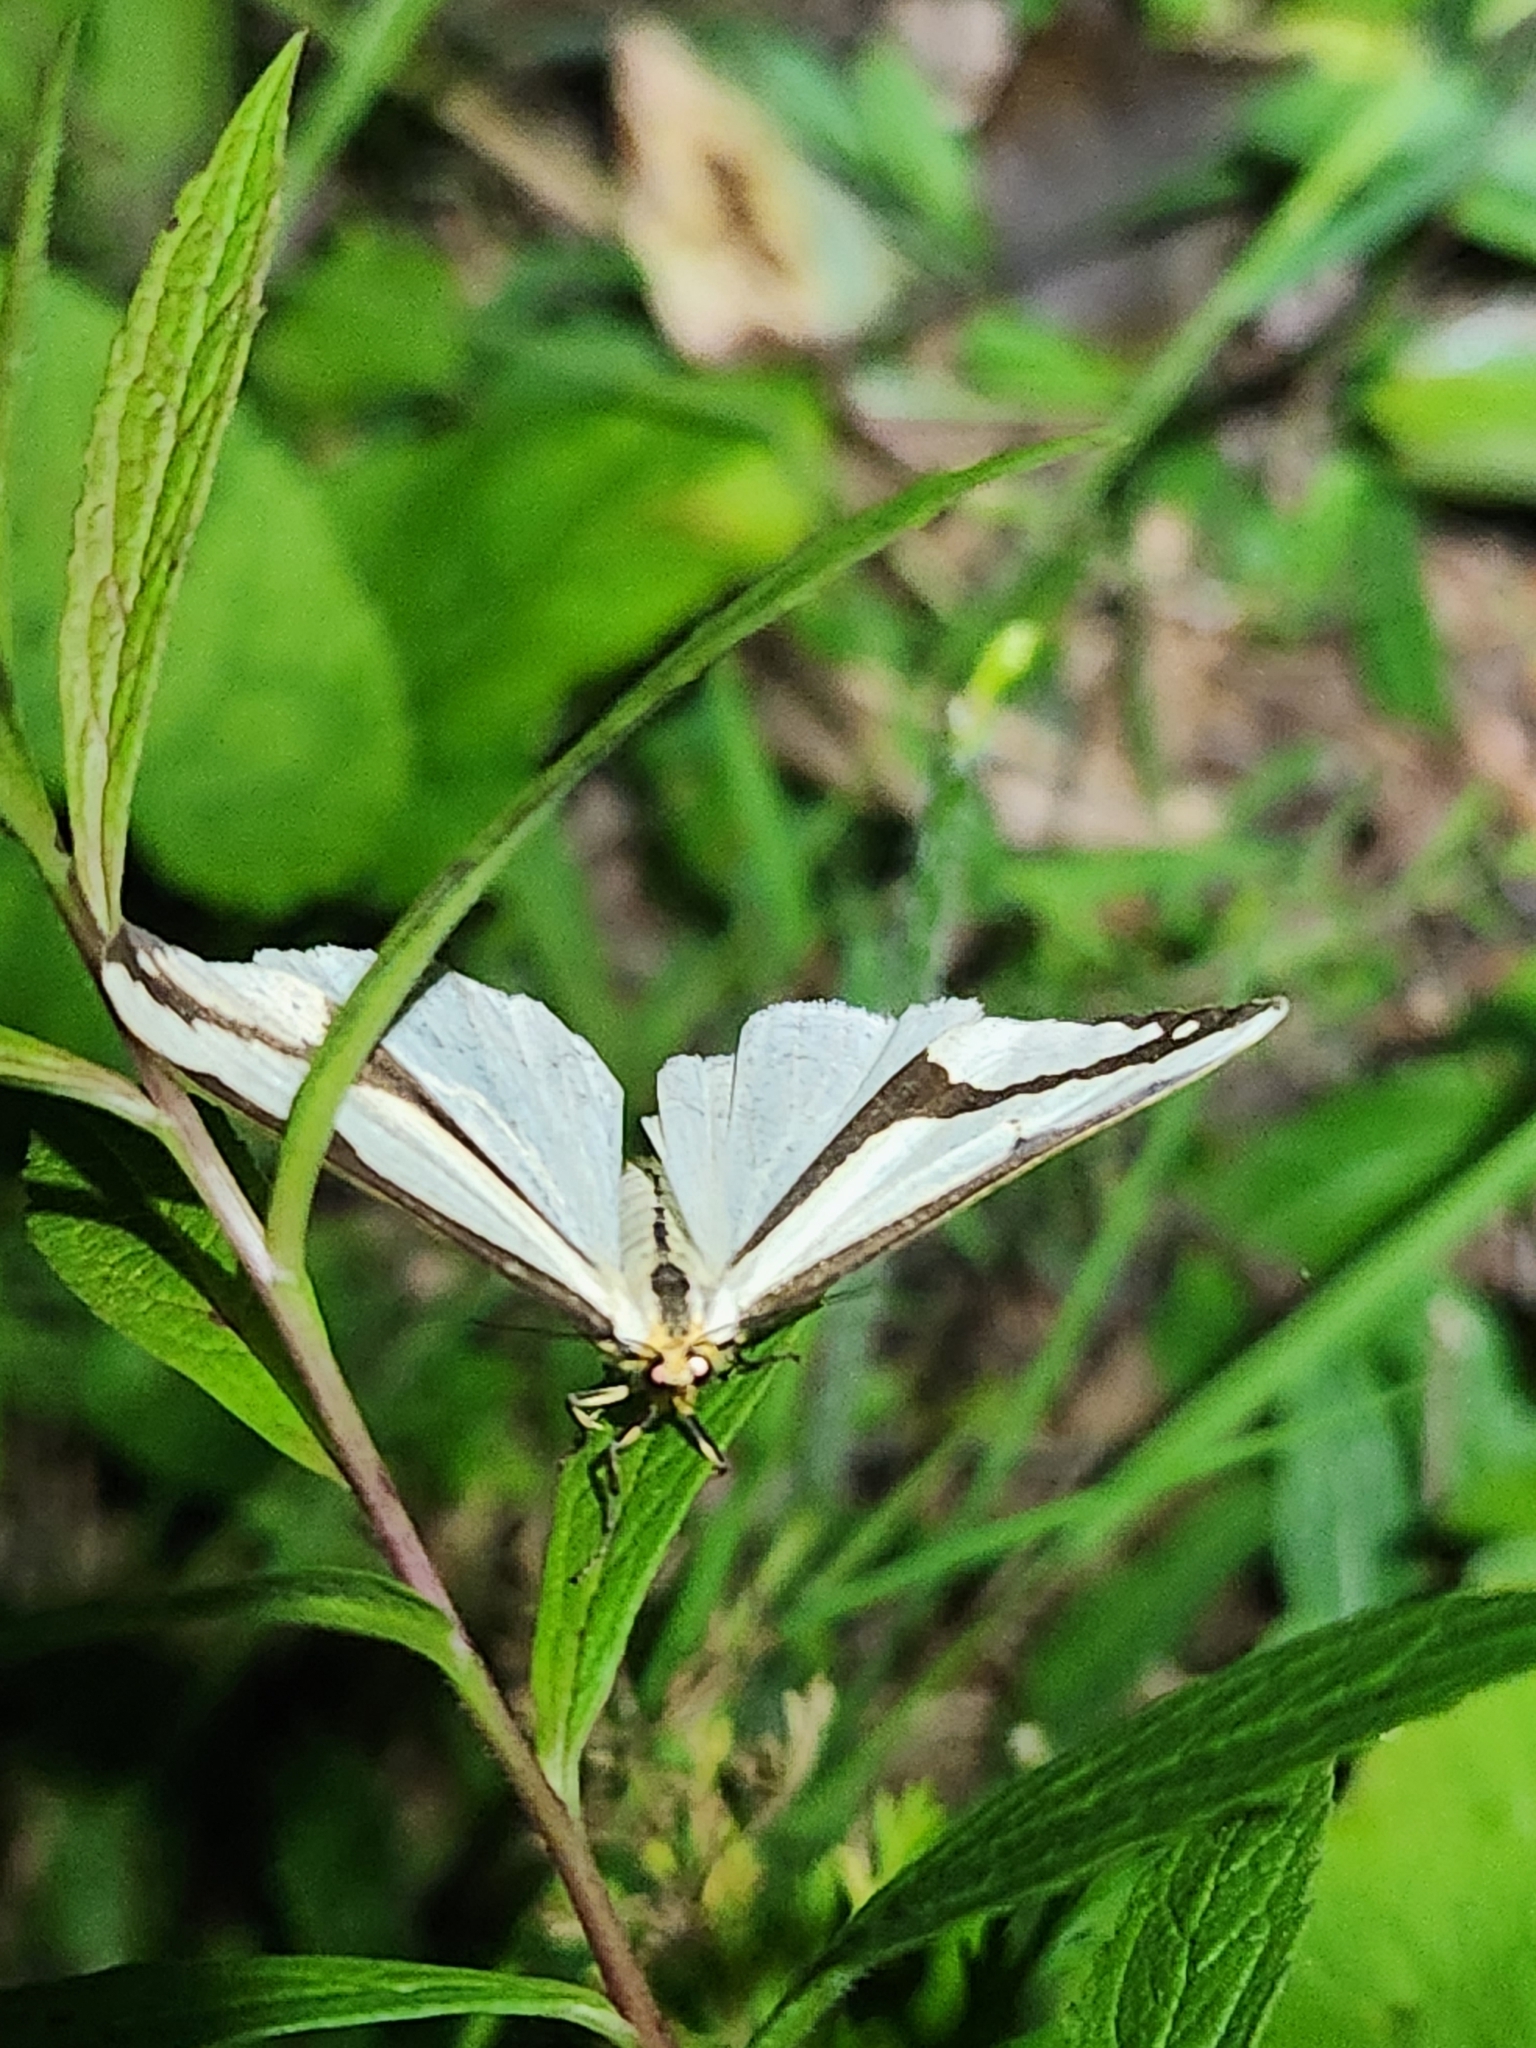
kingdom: Animalia
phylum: Arthropoda
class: Insecta
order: Lepidoptera
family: Erebidae
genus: Haploa
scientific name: Haploa lecontei
